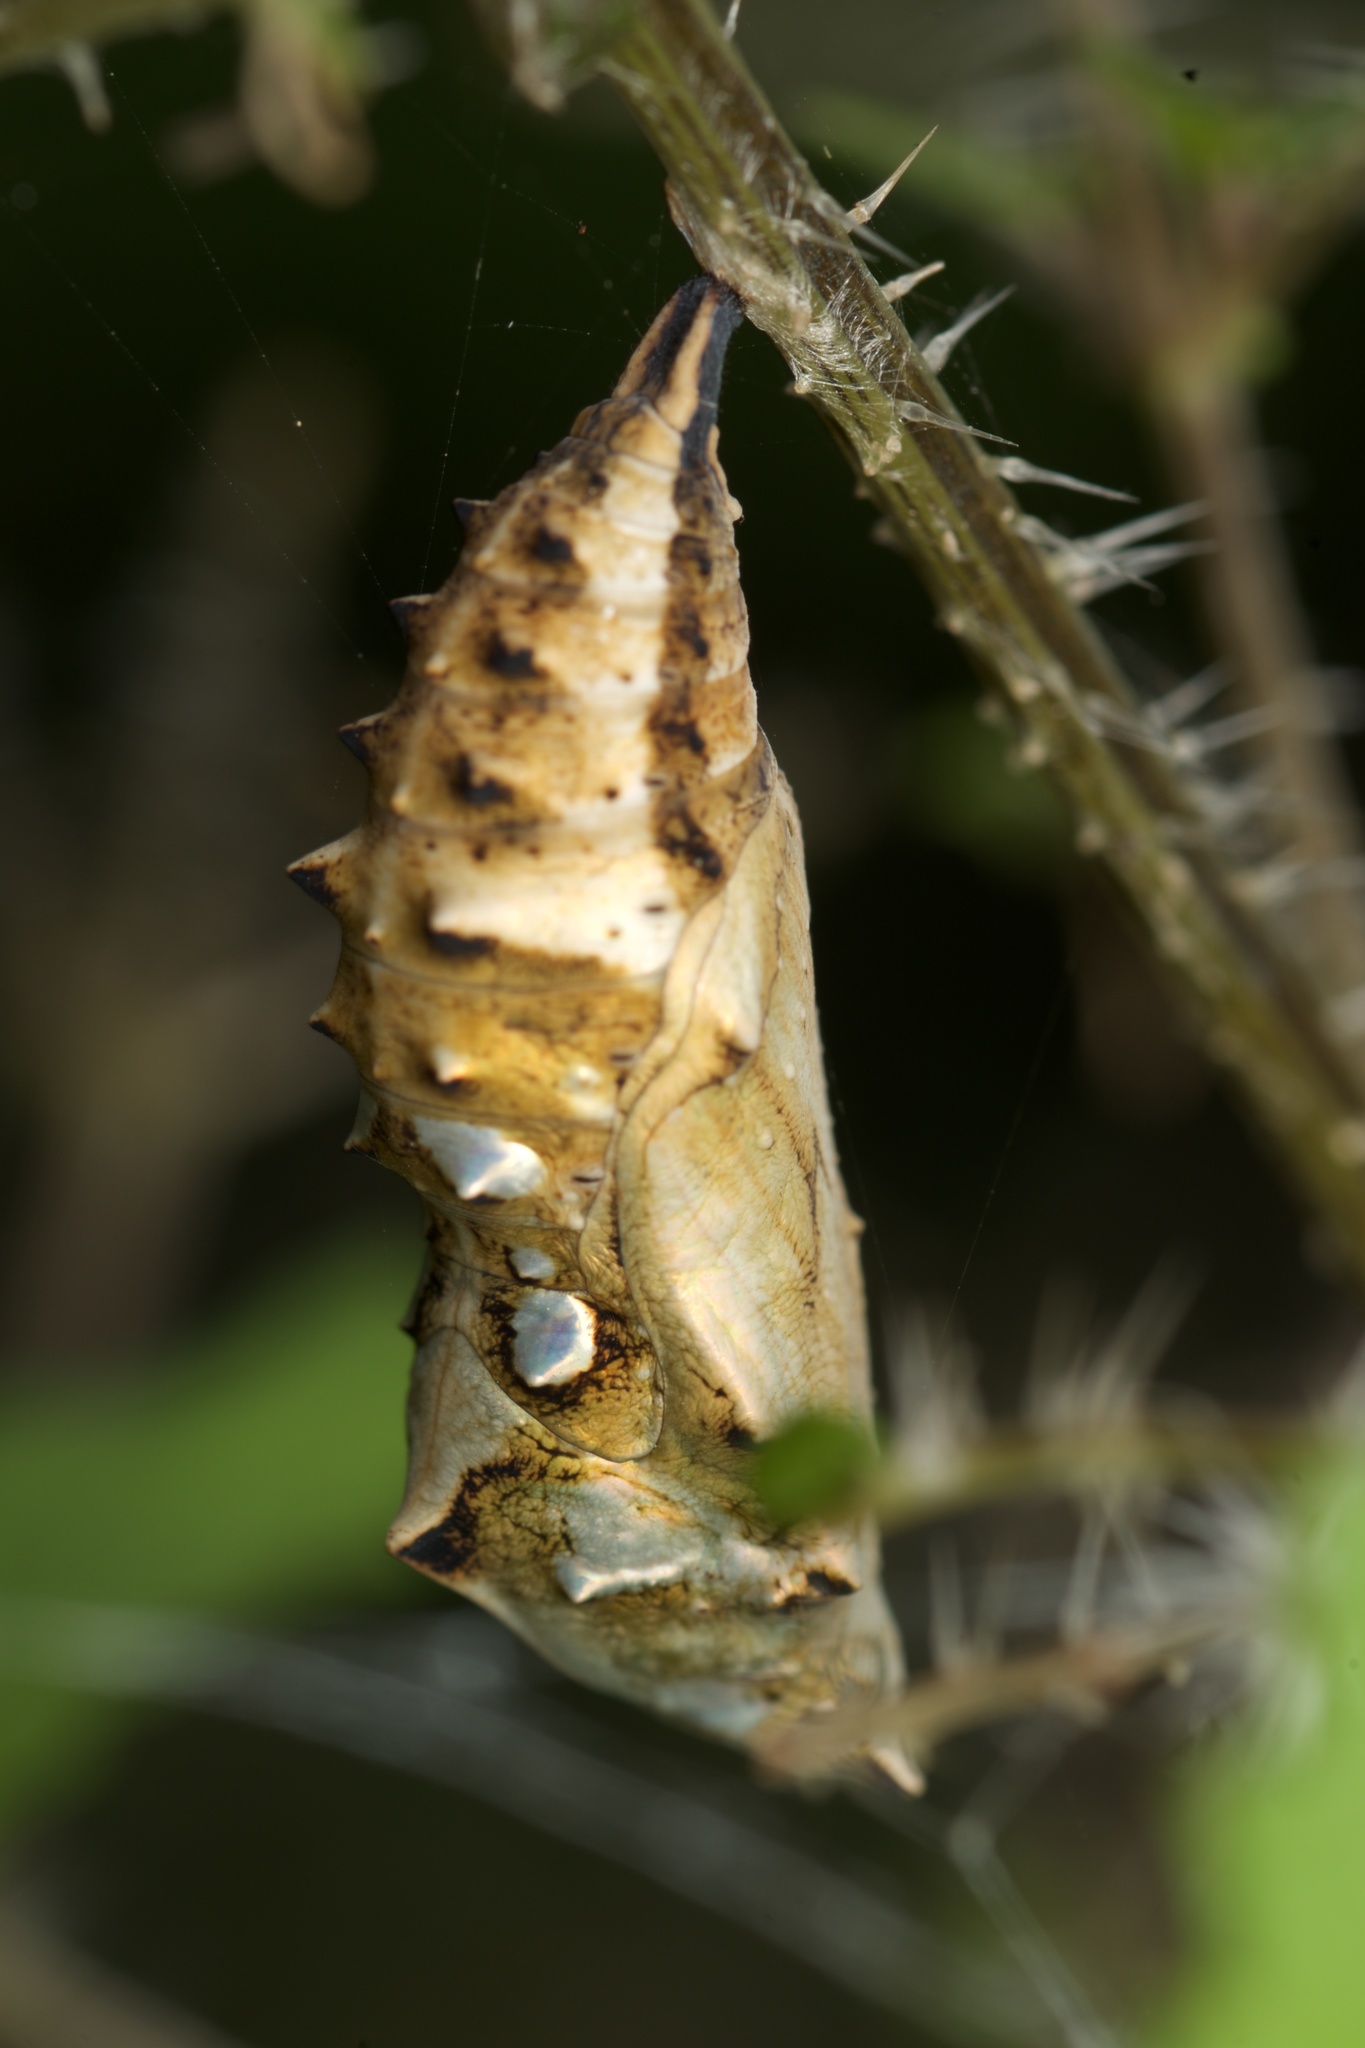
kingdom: Animalia
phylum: Arthropoda
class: Insecta
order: Lepidoptera
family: Nymphalidae
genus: Vanessa
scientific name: Vanessa itea
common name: Yellow admiral
